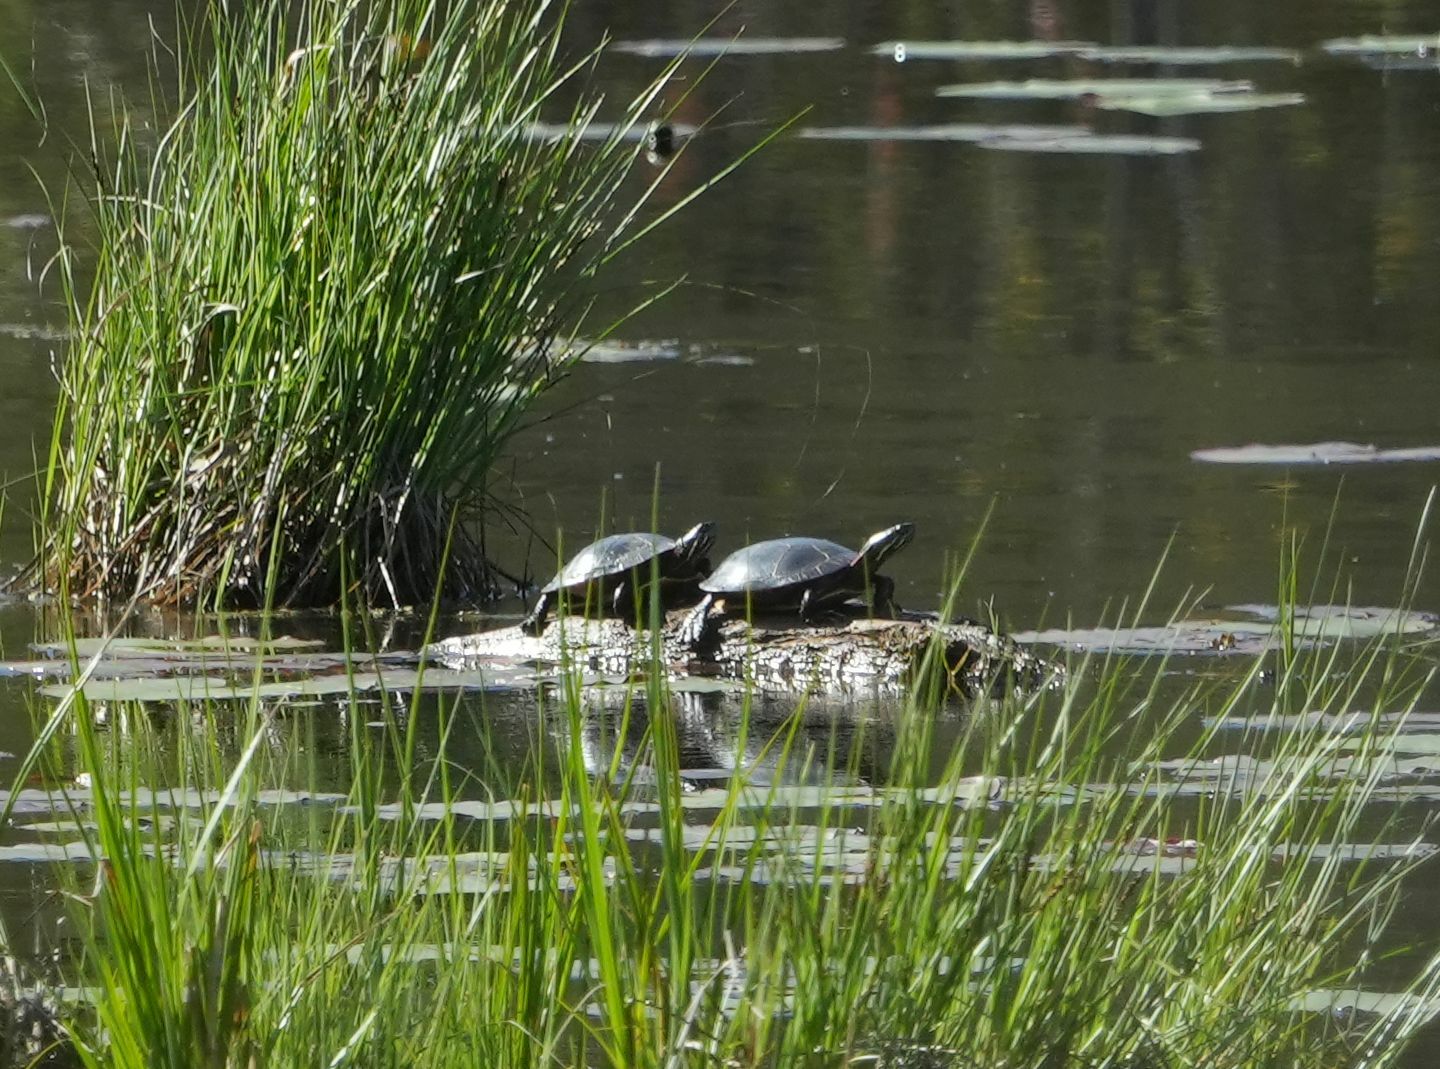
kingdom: Animalia
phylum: Chordata
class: Testudines
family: Emydidae
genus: Chrysemys
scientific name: Chrysemys picta
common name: Painted turtle
